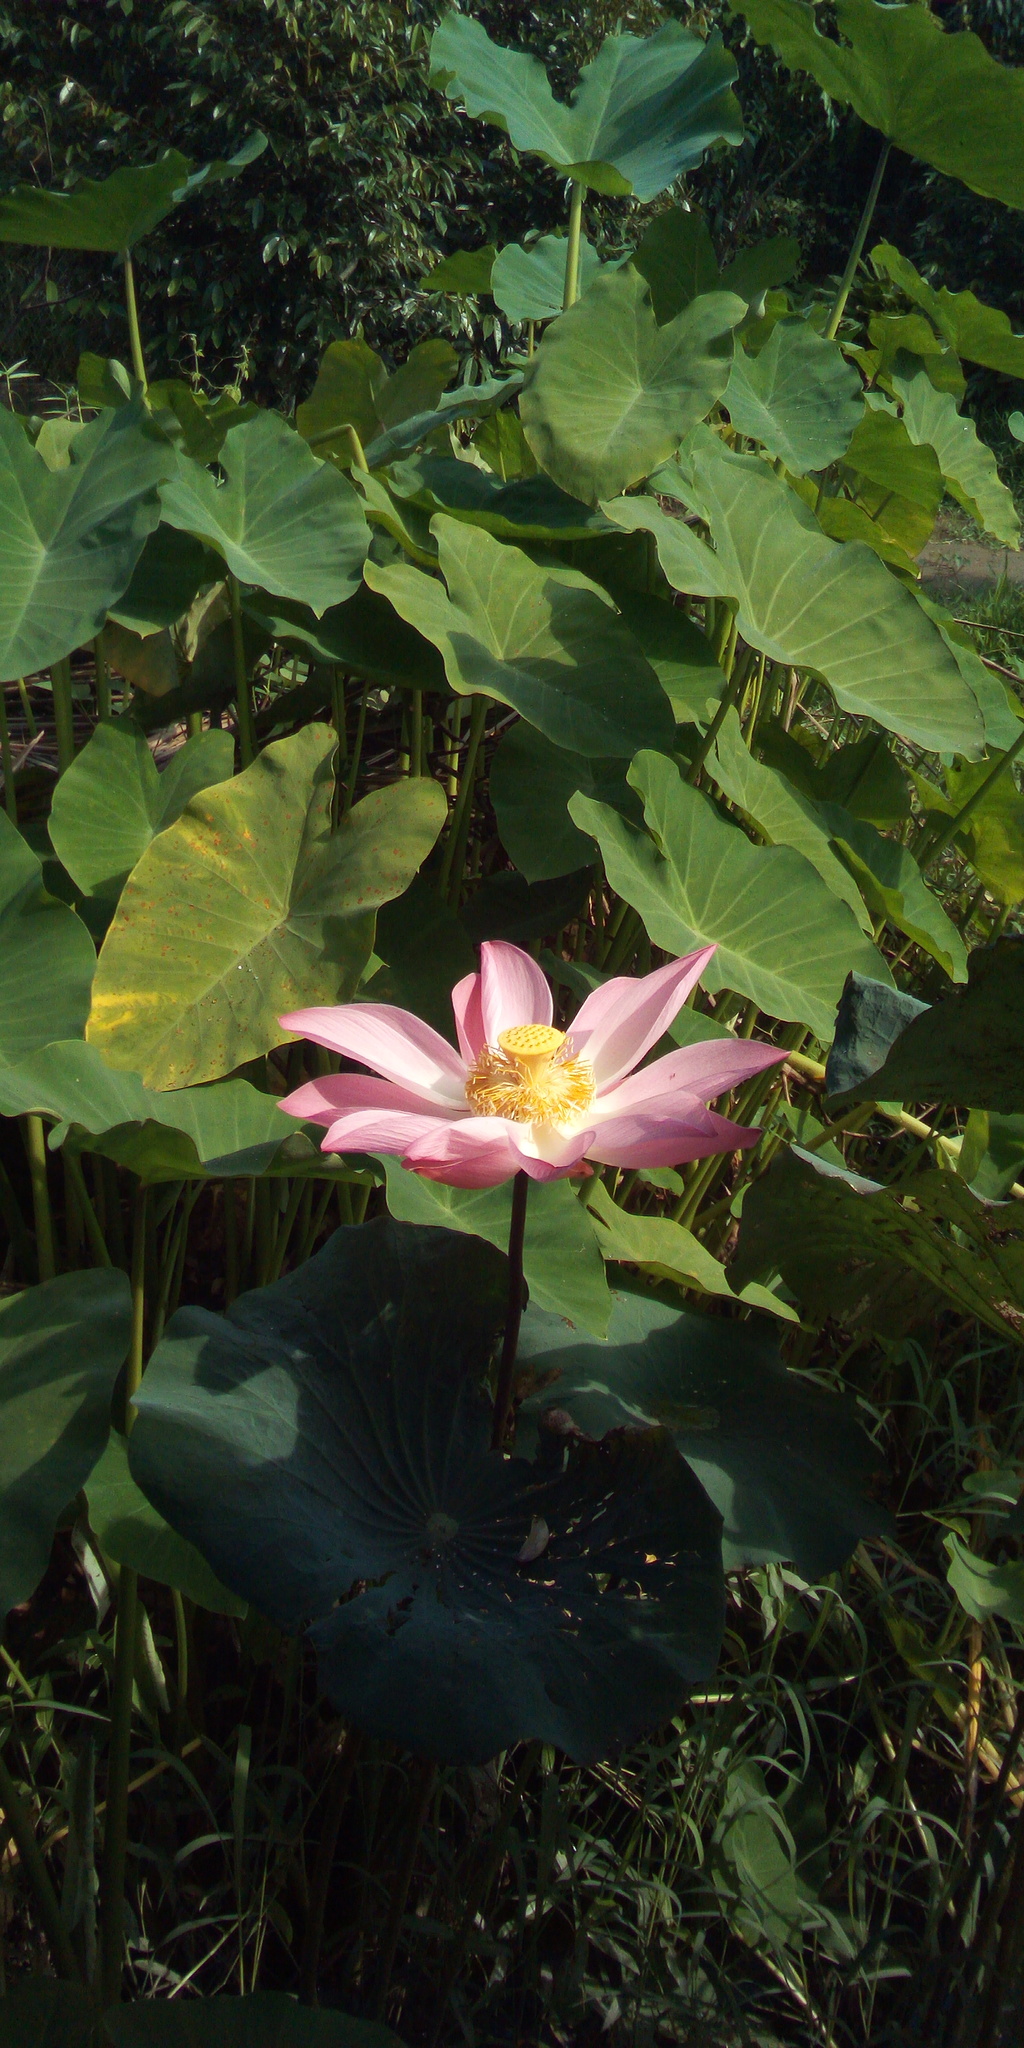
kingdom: Plantae
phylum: Tracheophyta
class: Magnoliopsida
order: Proteales
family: Nelumbonaceae
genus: Nelumbo
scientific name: Nelumbo nucifera
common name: Sacred lotus
